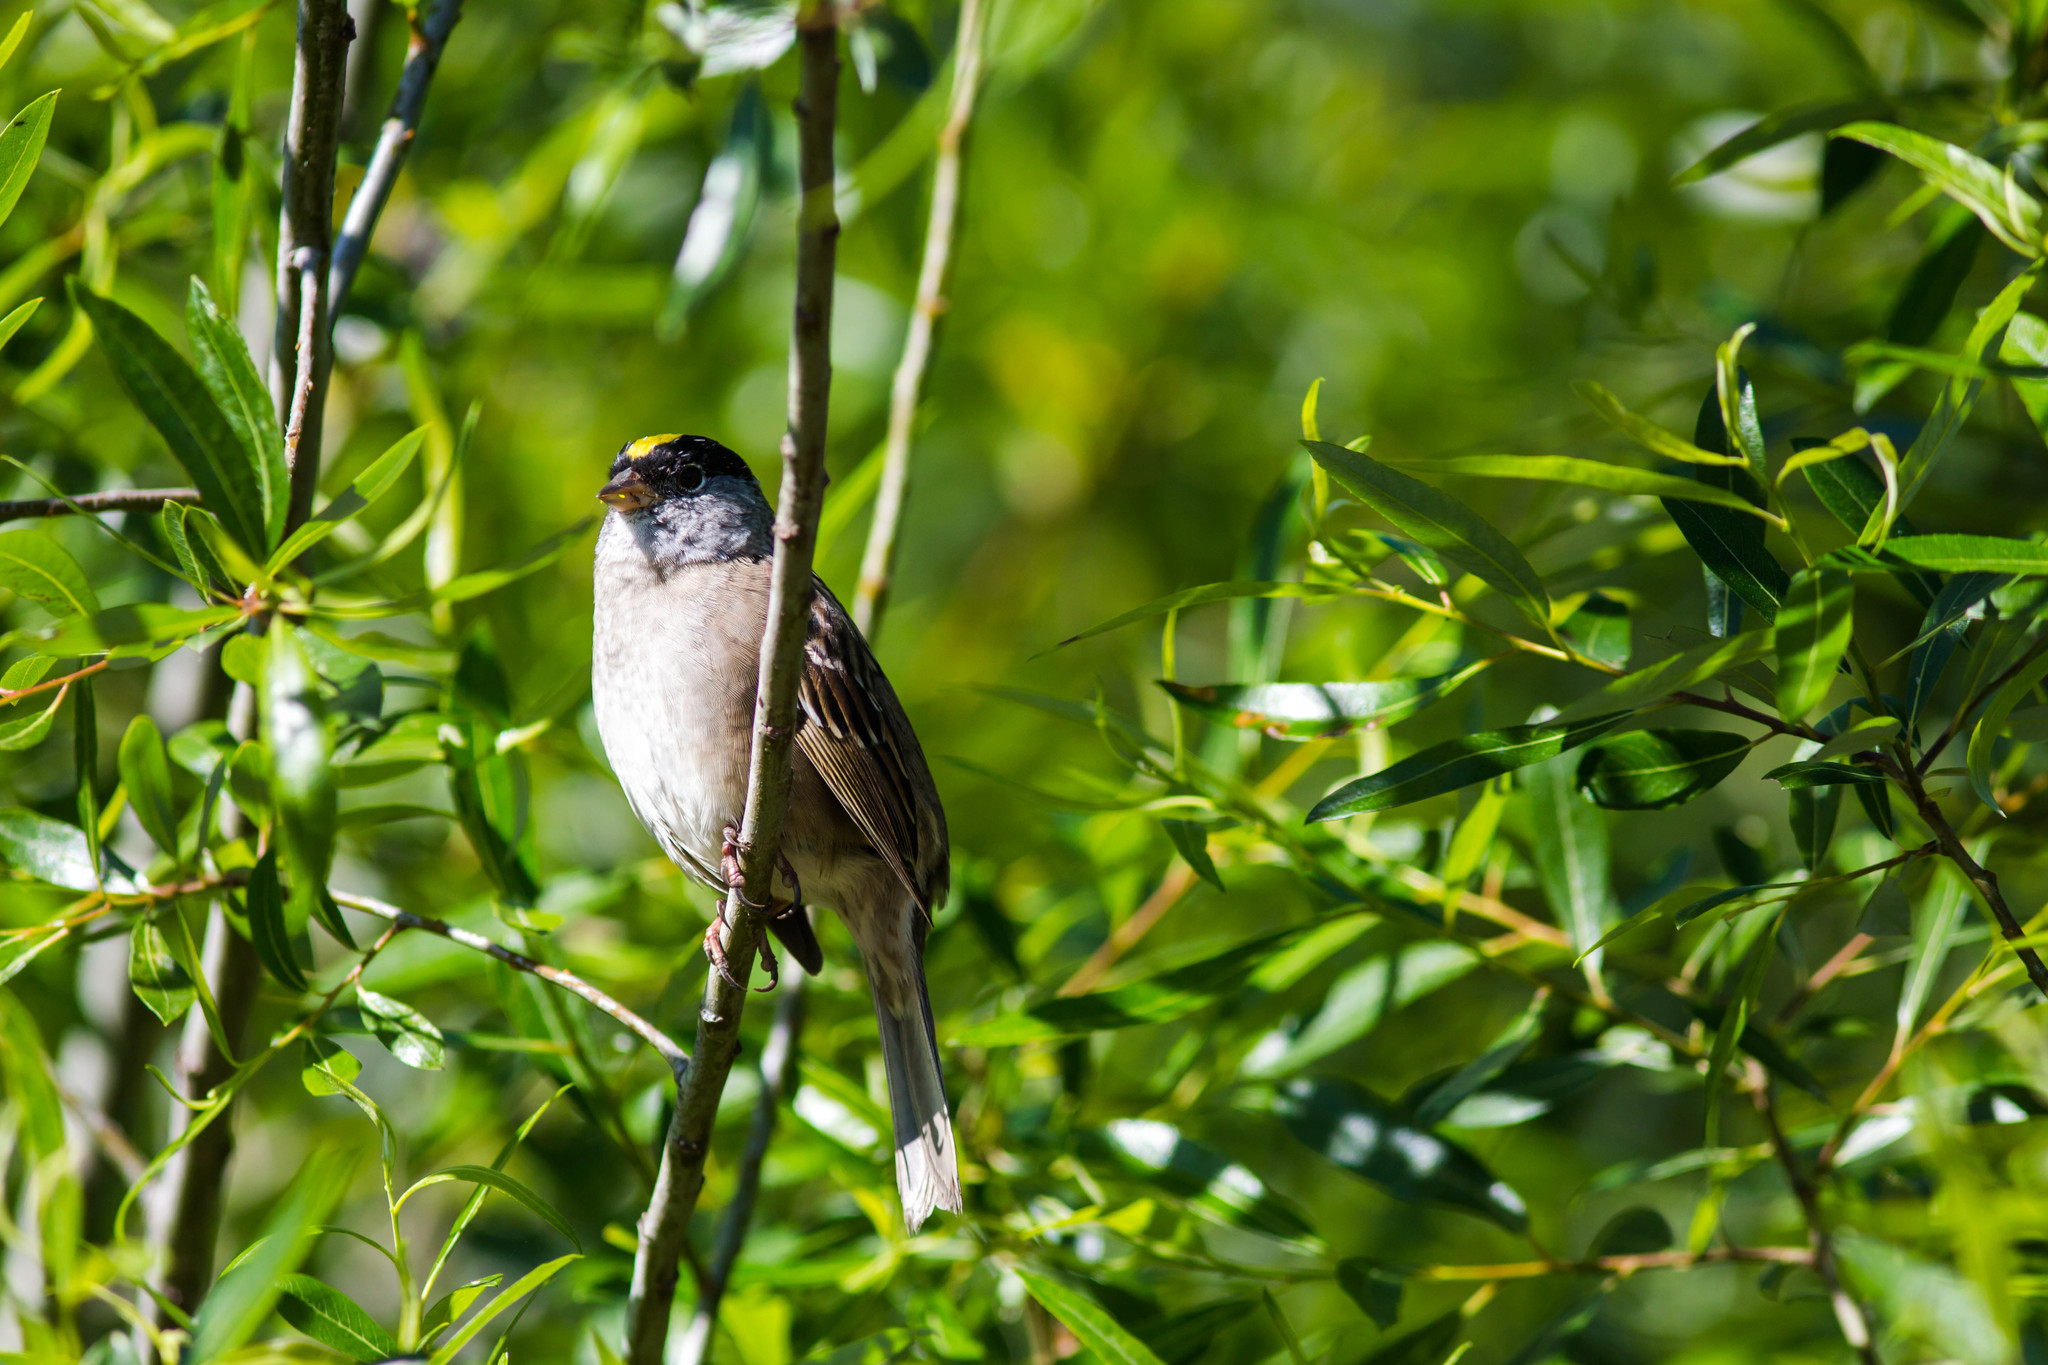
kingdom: Animalia
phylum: Chordata
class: Aves
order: Passeriformes
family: Passerellidae
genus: Zonotrichia
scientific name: Zonotrichia atricapilla
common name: Golden-crowned sparrow
